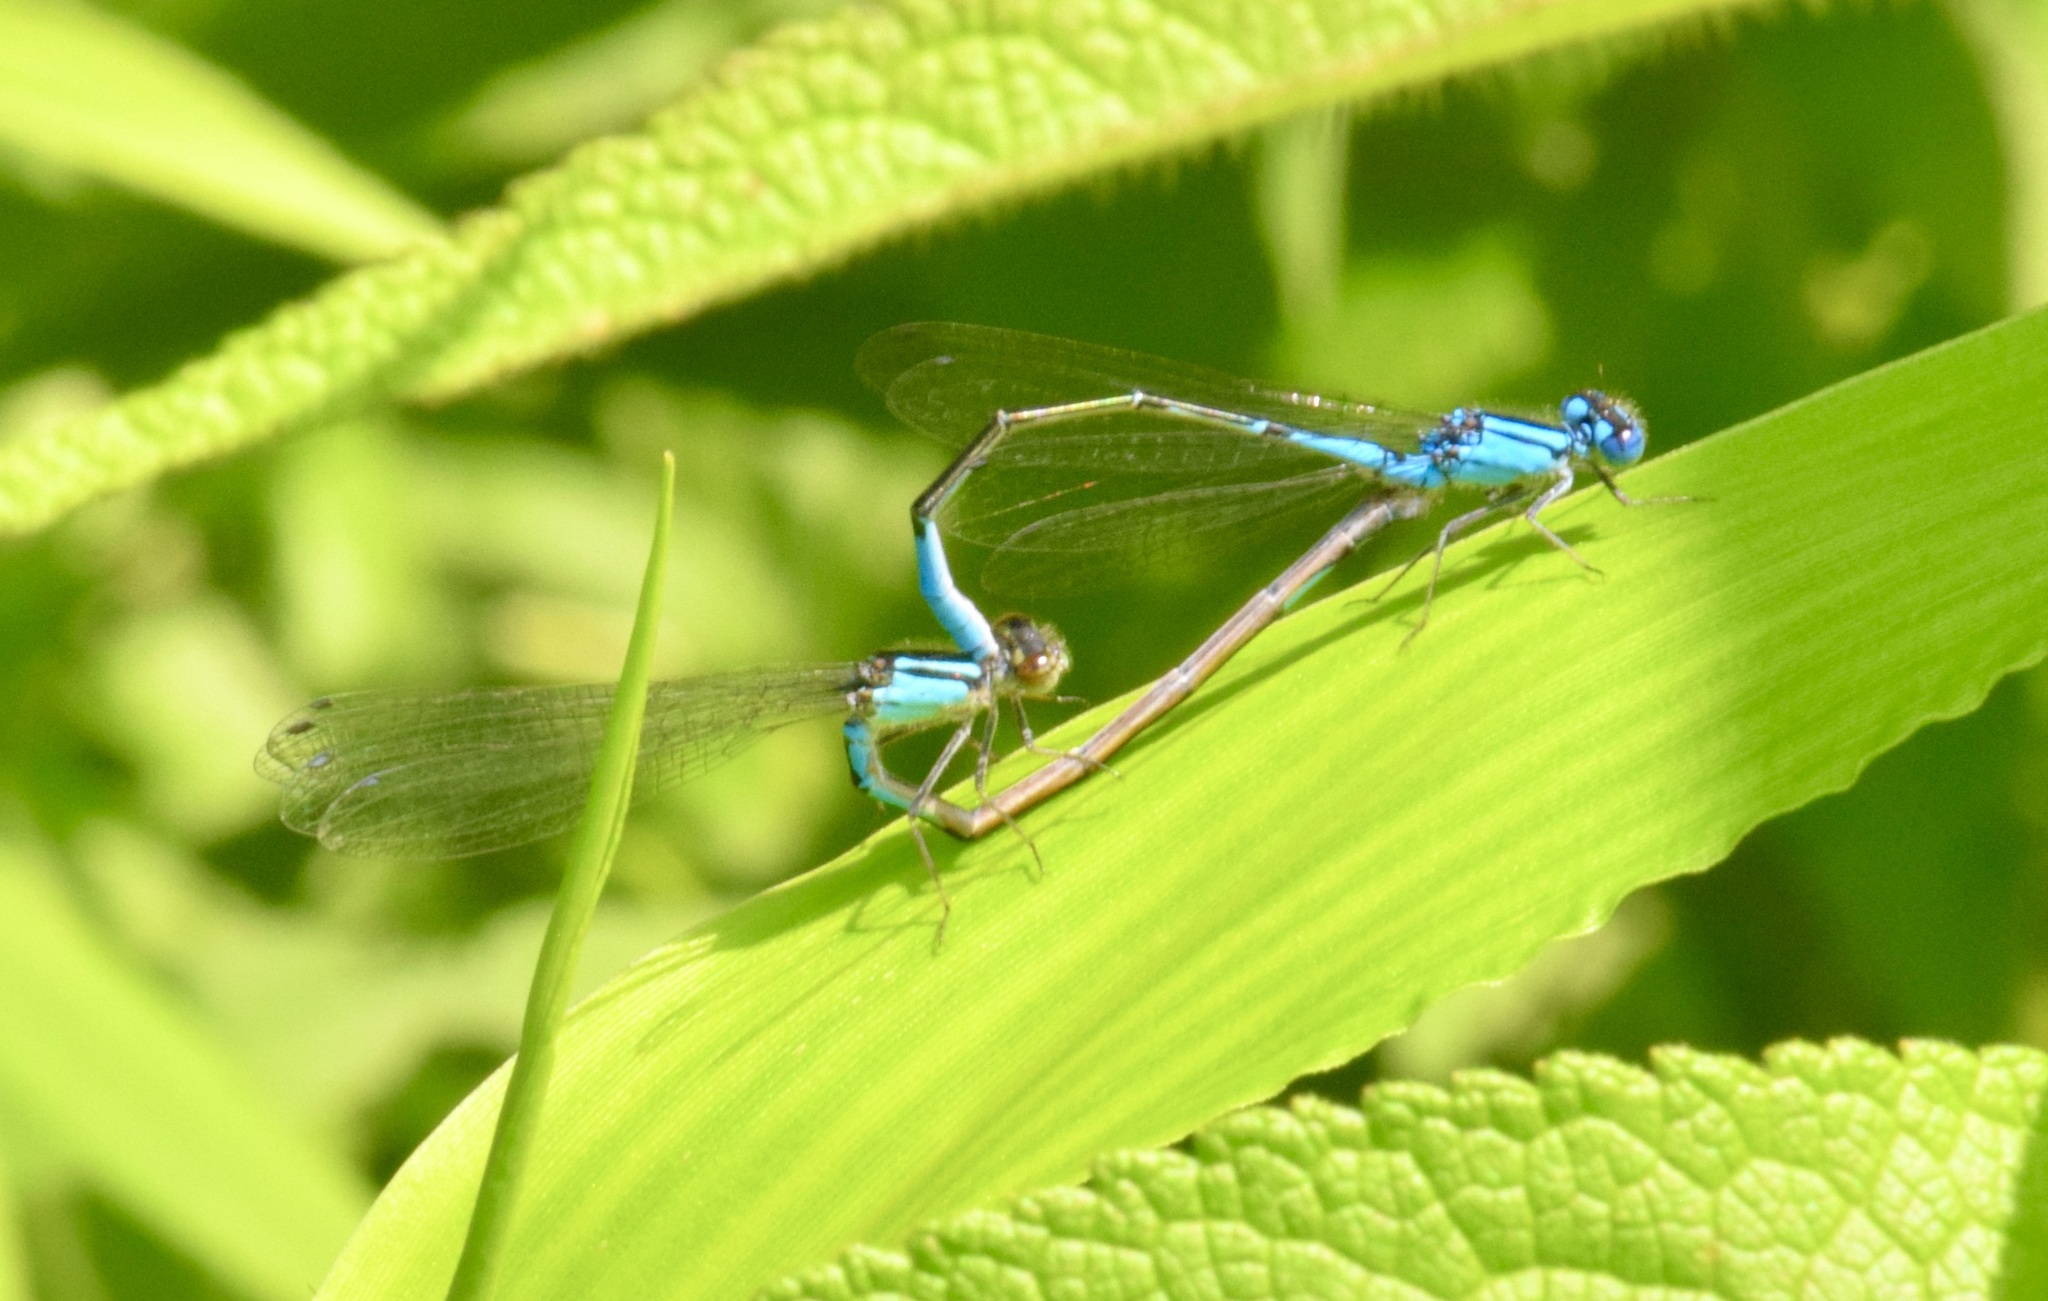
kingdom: Animalia
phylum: Arthropoda
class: Insecta
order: Odonata
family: Coenagrionidae
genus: Enallagma
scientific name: Enallagma aspersum
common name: Azure bluet
